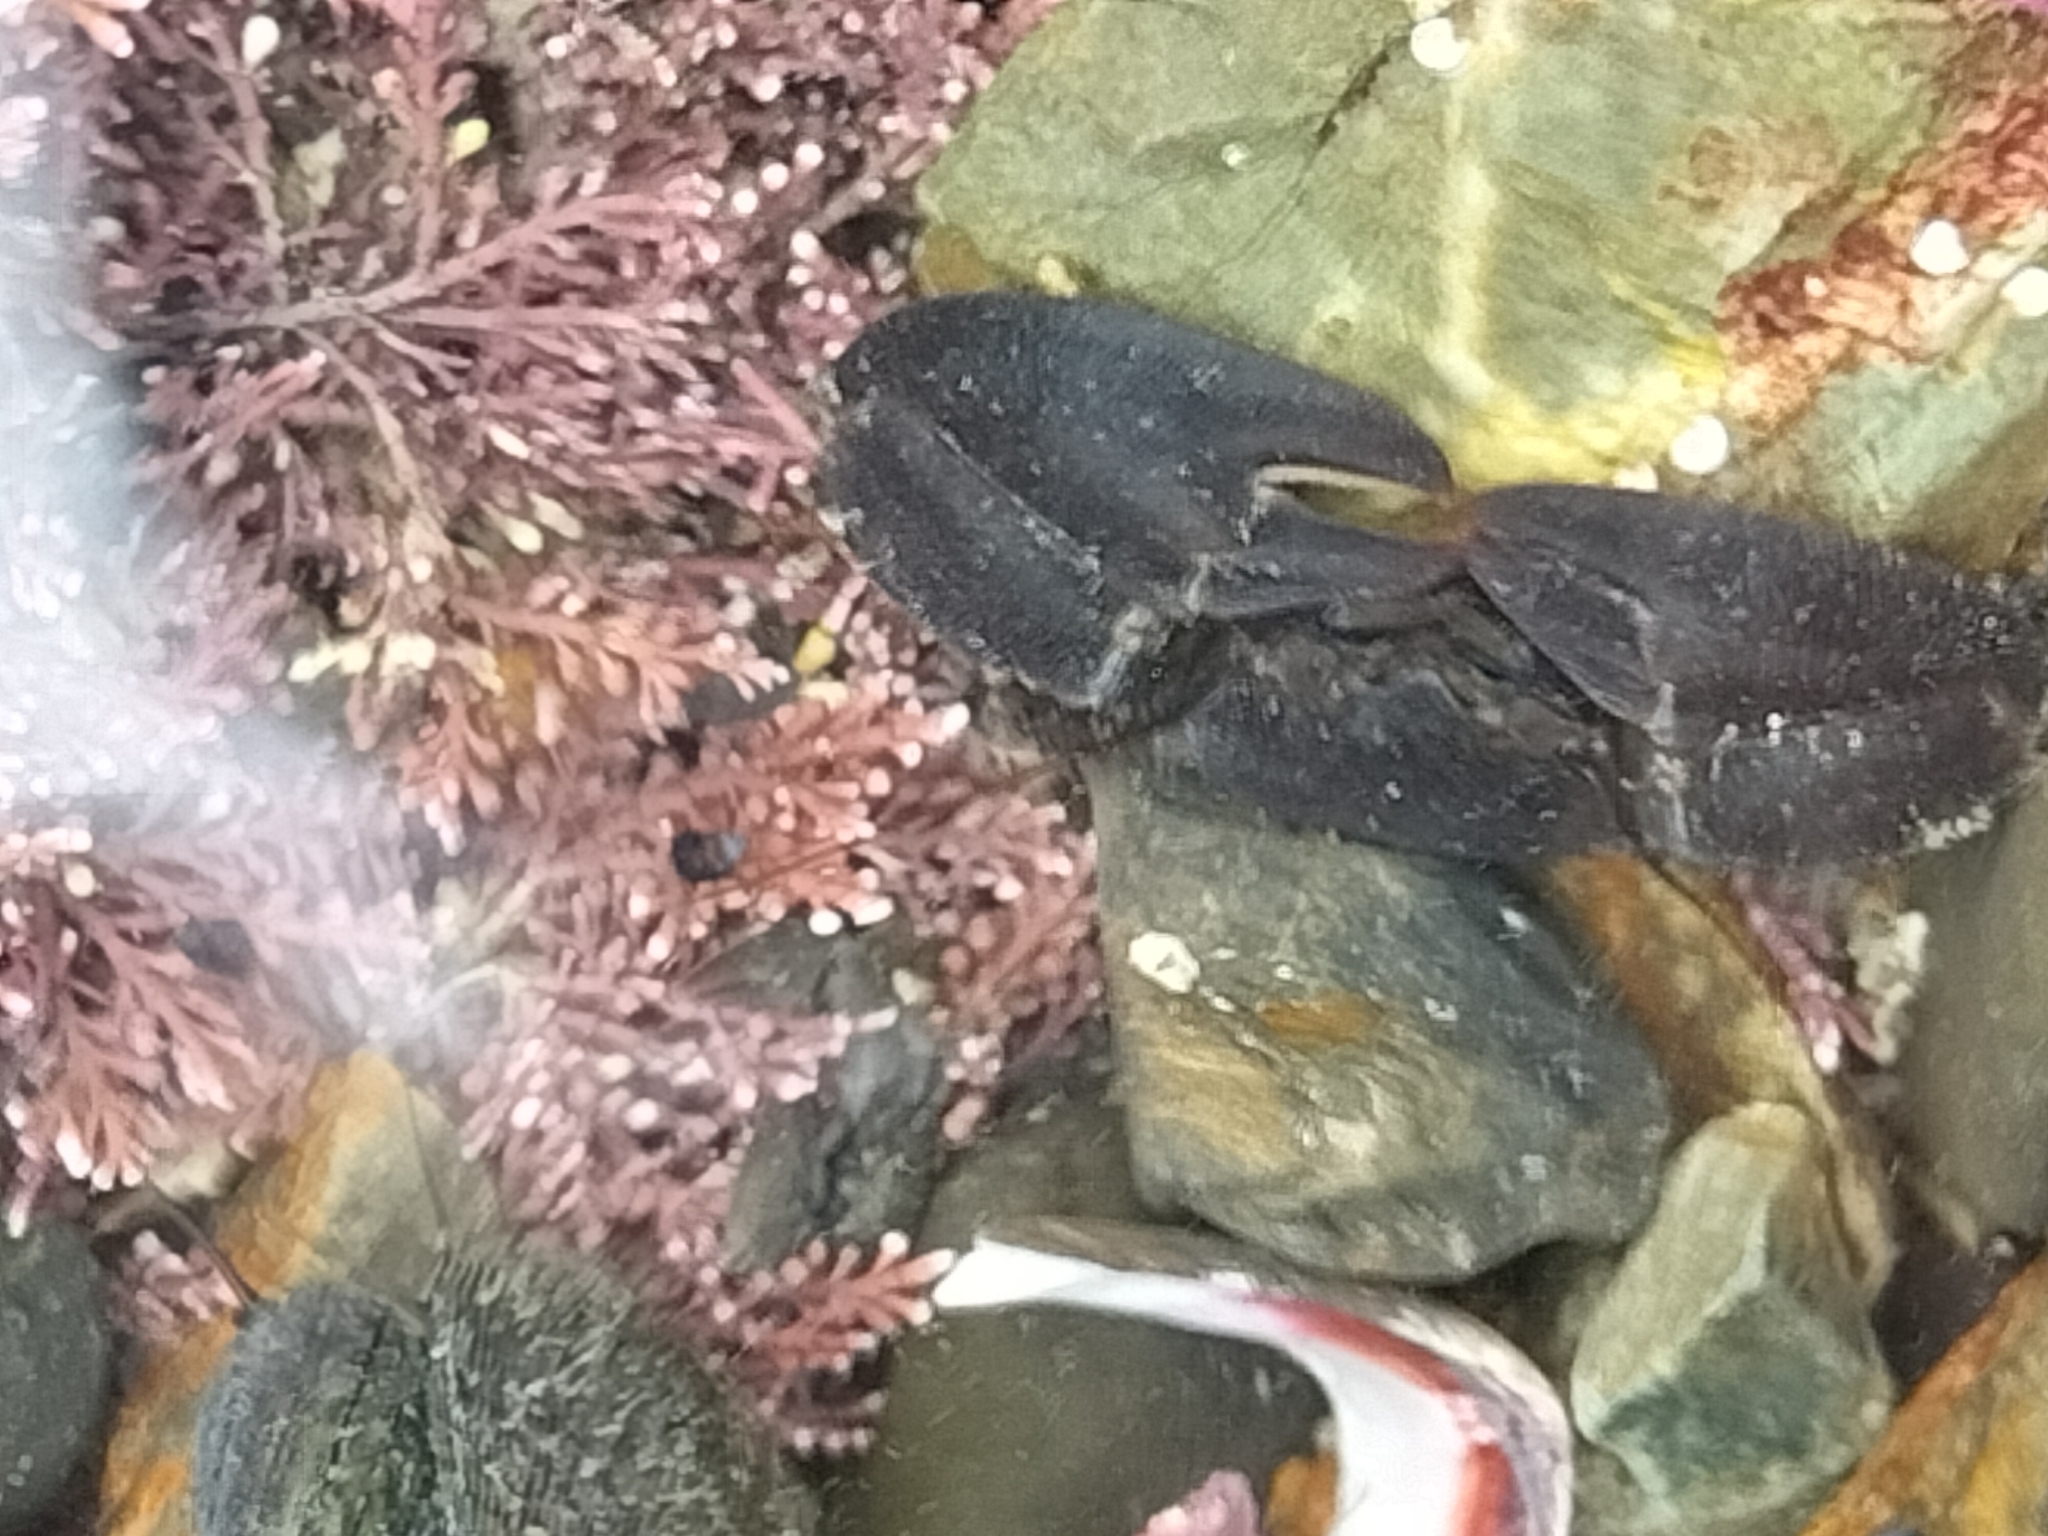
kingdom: Animalia
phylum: Arthropoda
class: Malacostraca
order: Decapoda
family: Porcellanidae
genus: Petrolisthes
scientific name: Petrolisthes elongatus
